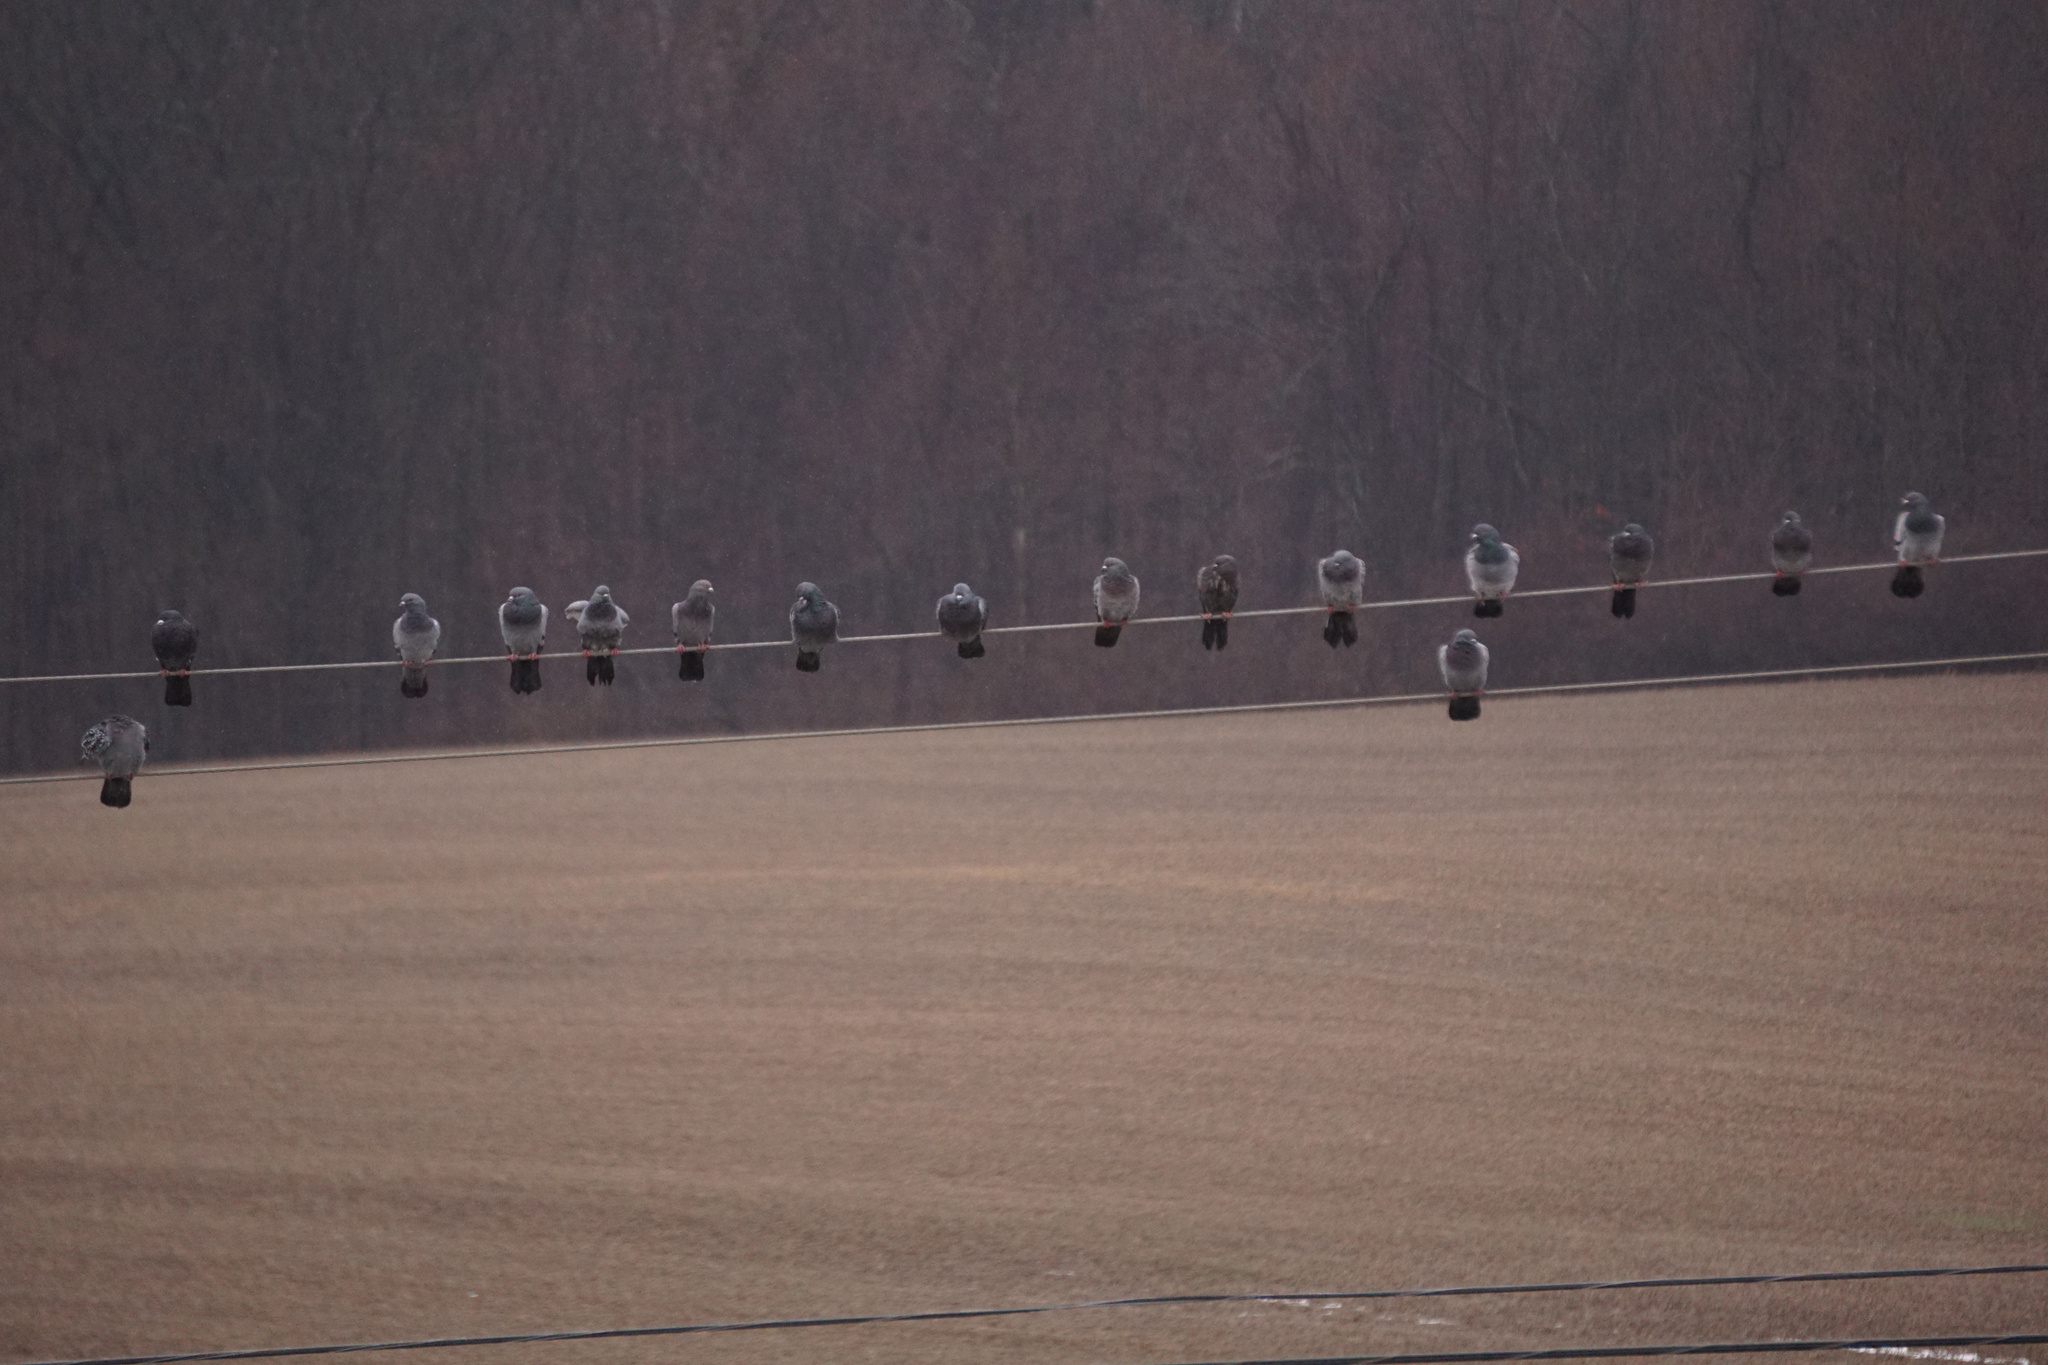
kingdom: Animalia
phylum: Chordata
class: Aves
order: Columbiformes
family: Columbidae
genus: Columba
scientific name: Columba livia
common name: Rock pigeon
